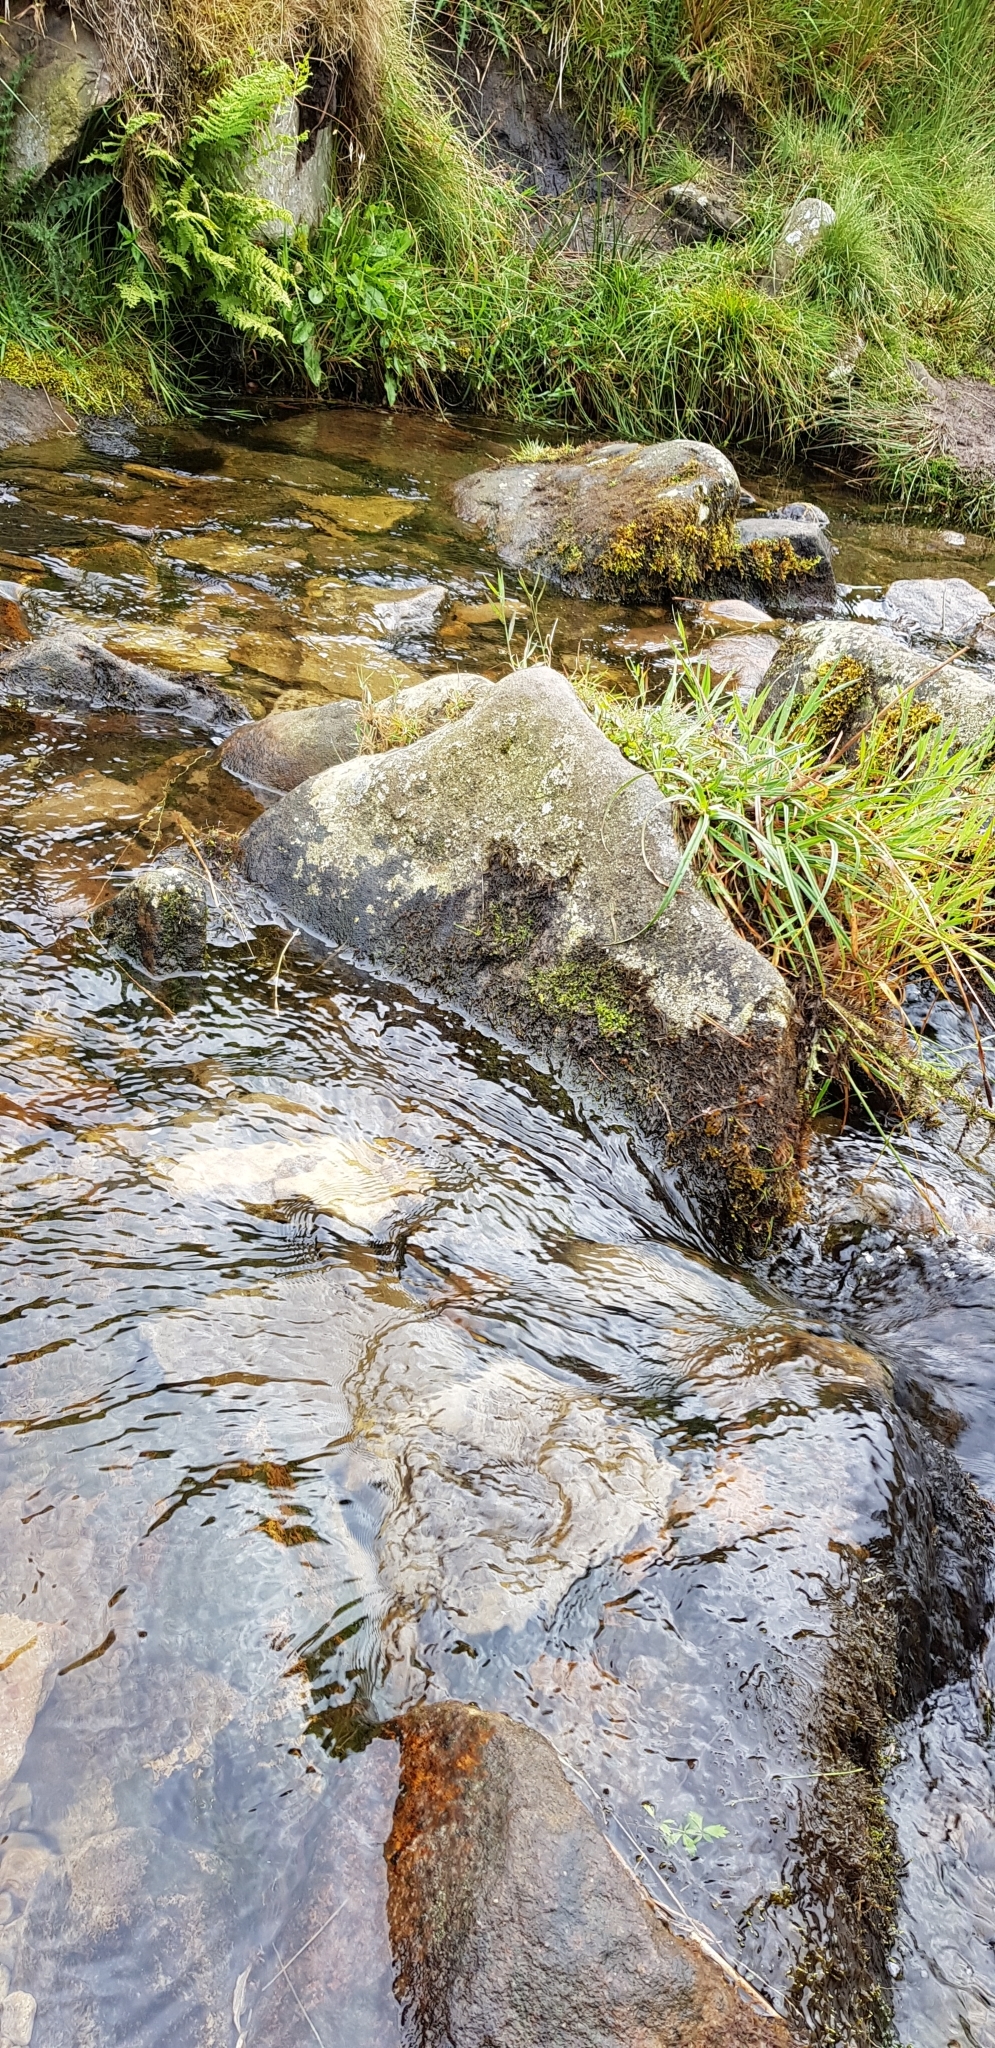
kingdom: Plantae
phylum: Marchantiophyta
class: Jungermanniopsida
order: Jungermanniales
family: Scapaniaceae
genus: Scapania
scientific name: Scapania undulata
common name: Water earwort
